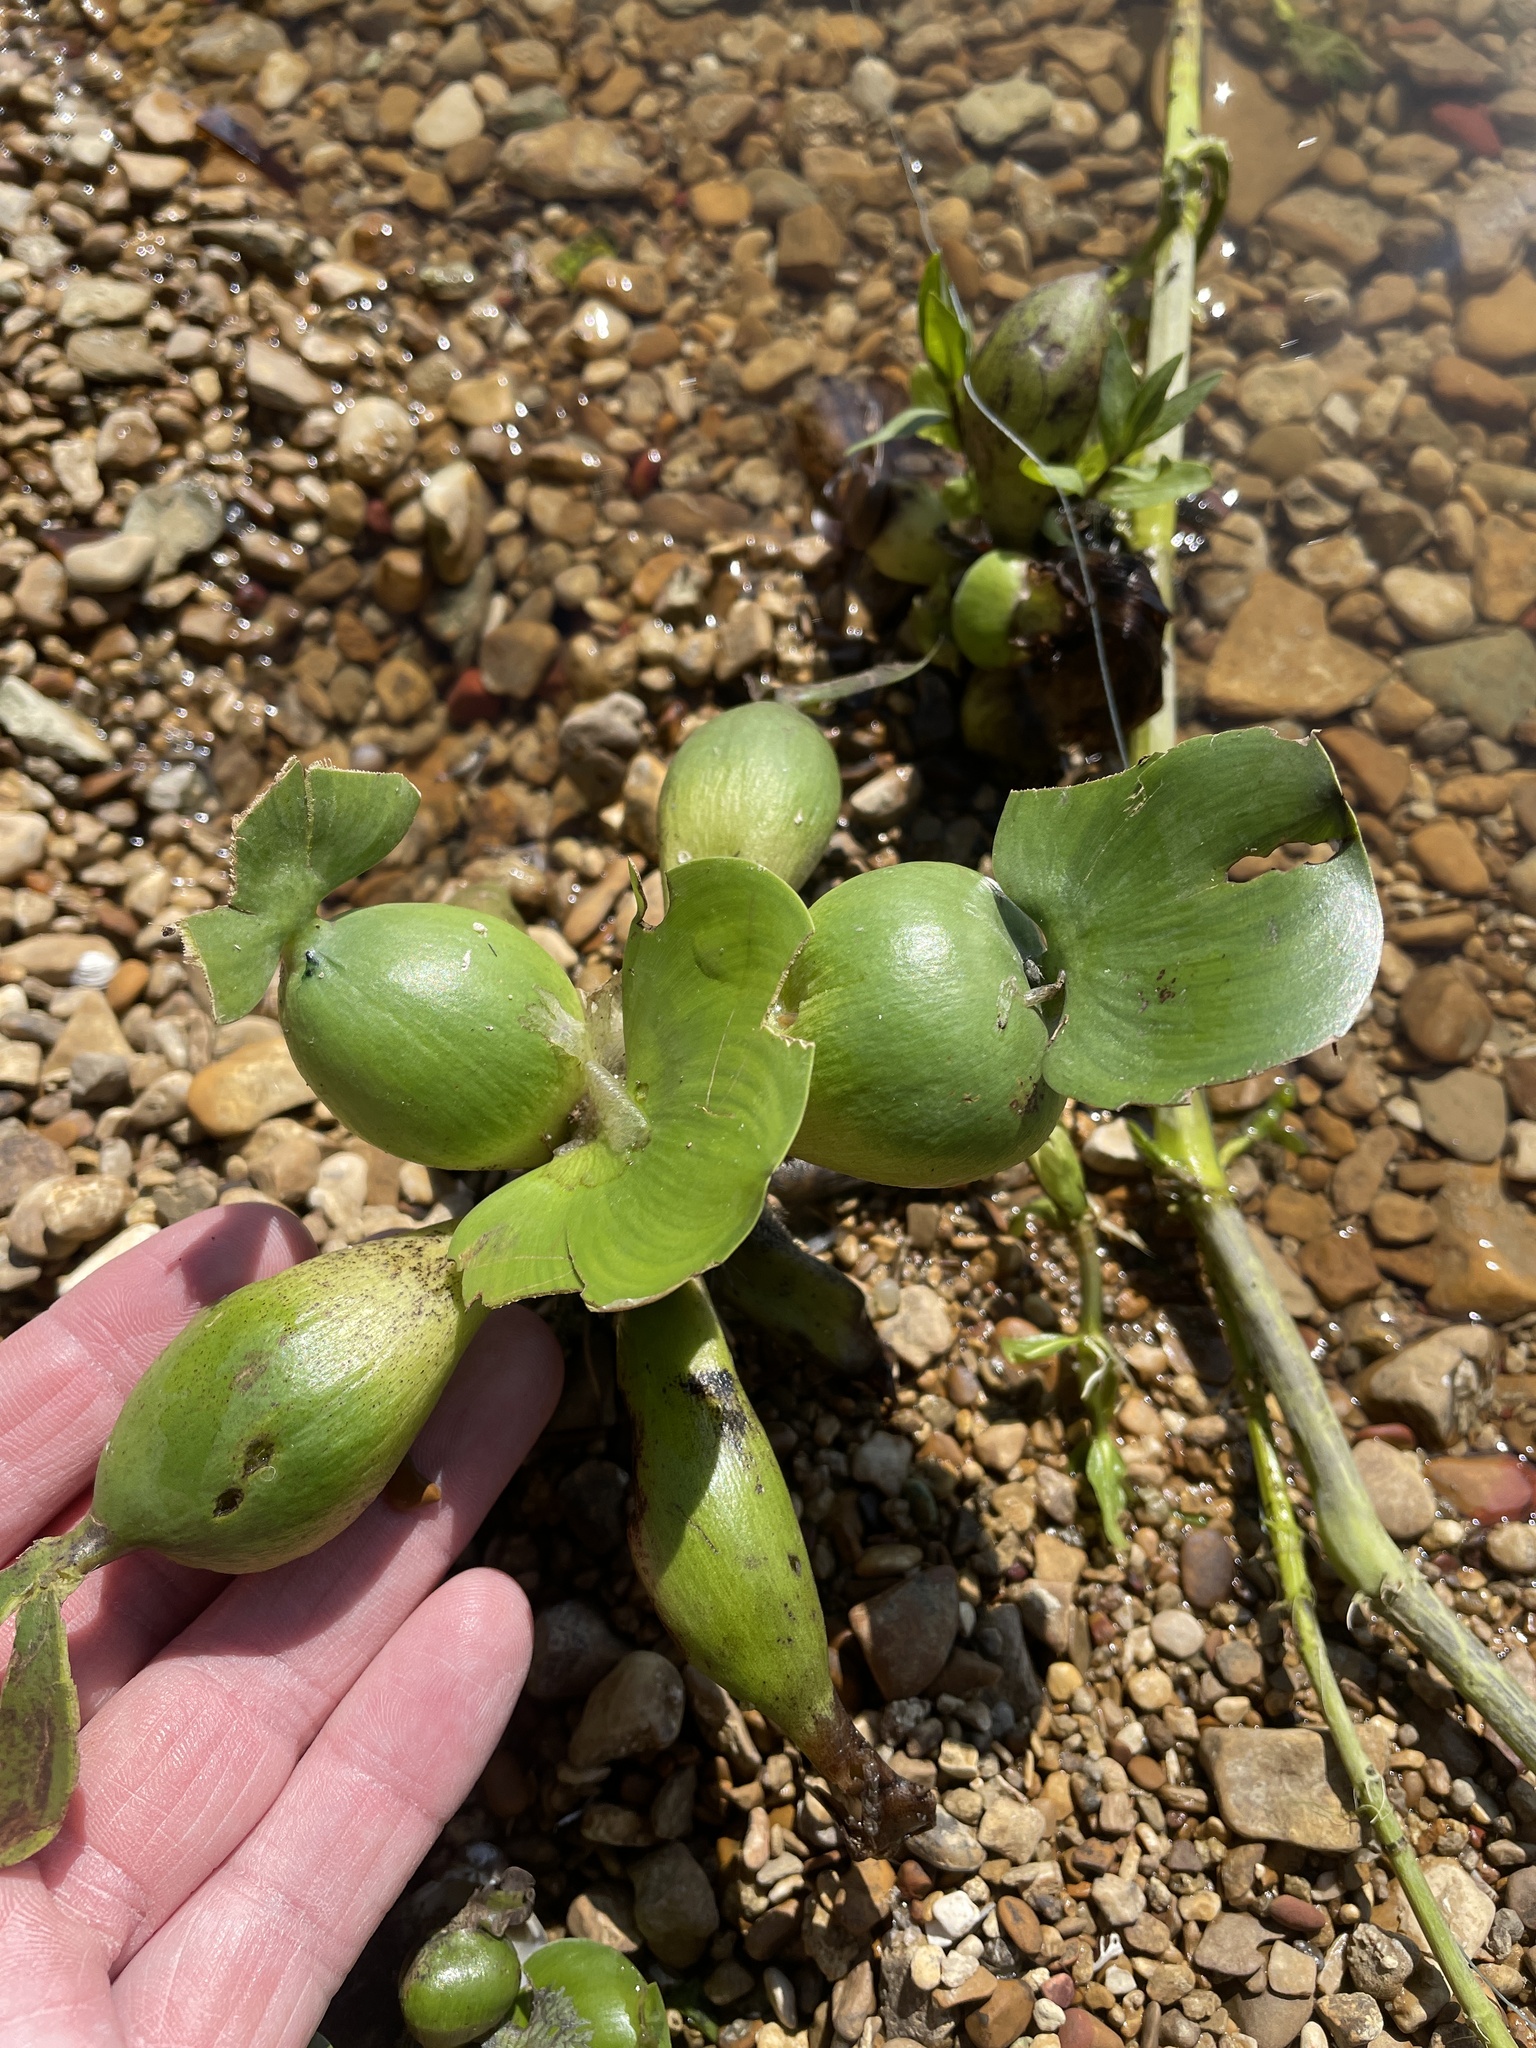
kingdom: Plantae
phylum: Tracheophyta
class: Liliopsida
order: Commelinales
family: Pontederiaceae
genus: Pontederia
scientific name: Pontederia crassipes
